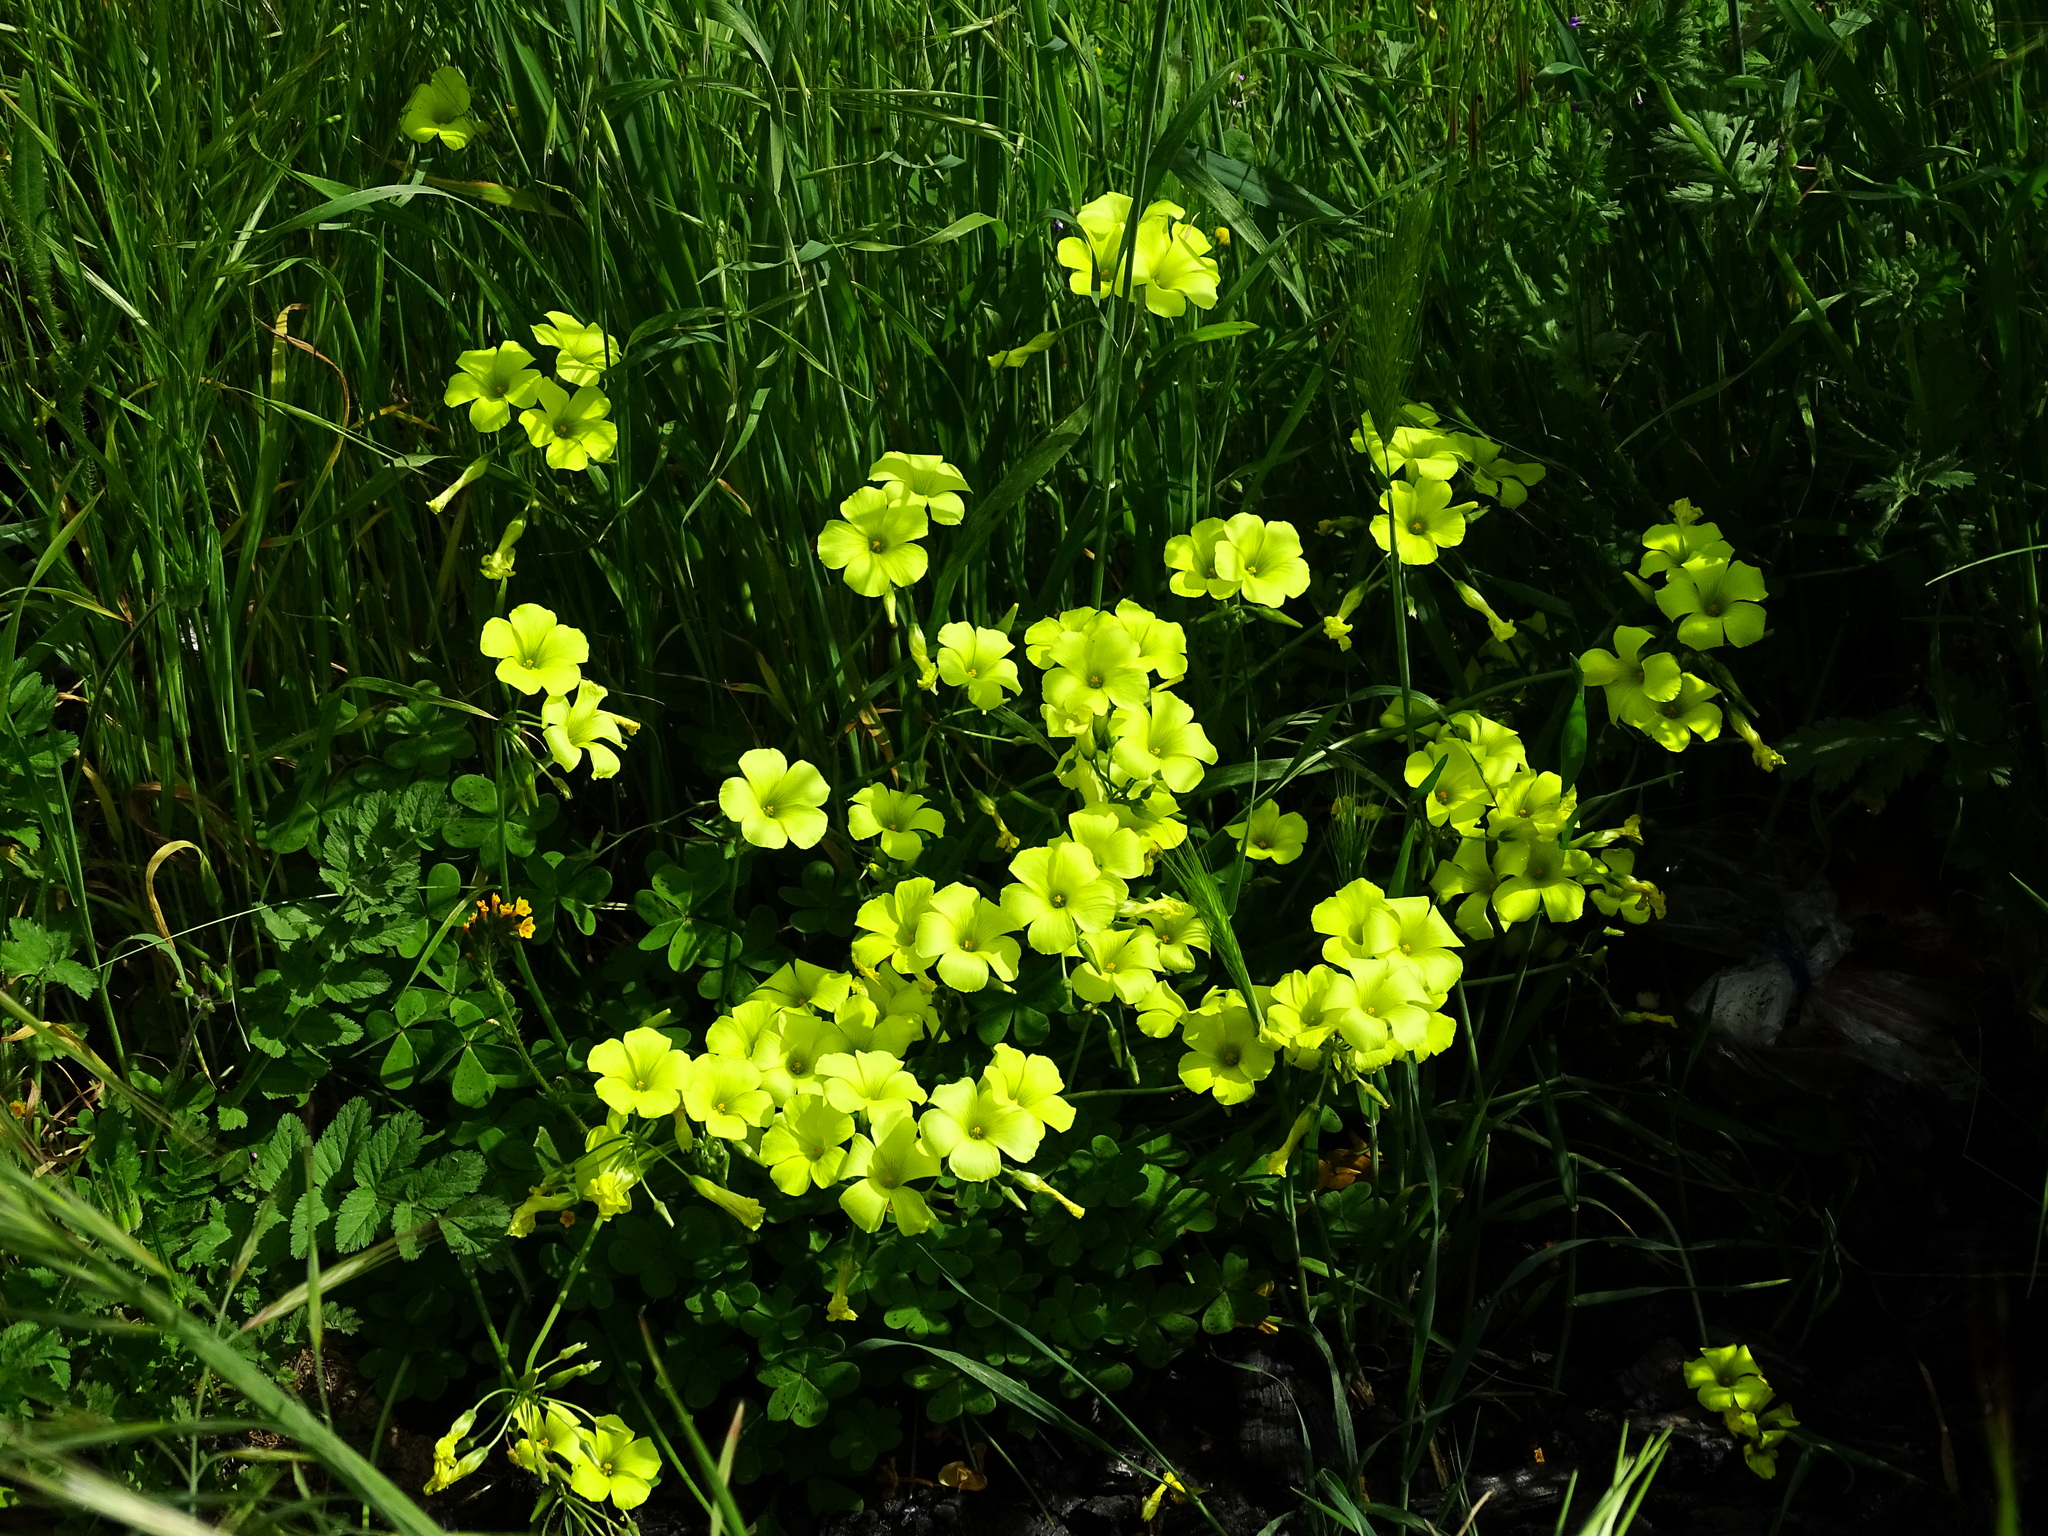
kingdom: Plantae
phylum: Tracheophyta
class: Magnoliopsida
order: Oxalidales
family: Oxalidaceae
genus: Oxalis
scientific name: Oxalis pes-caprae
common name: Bermuda-buttercup
